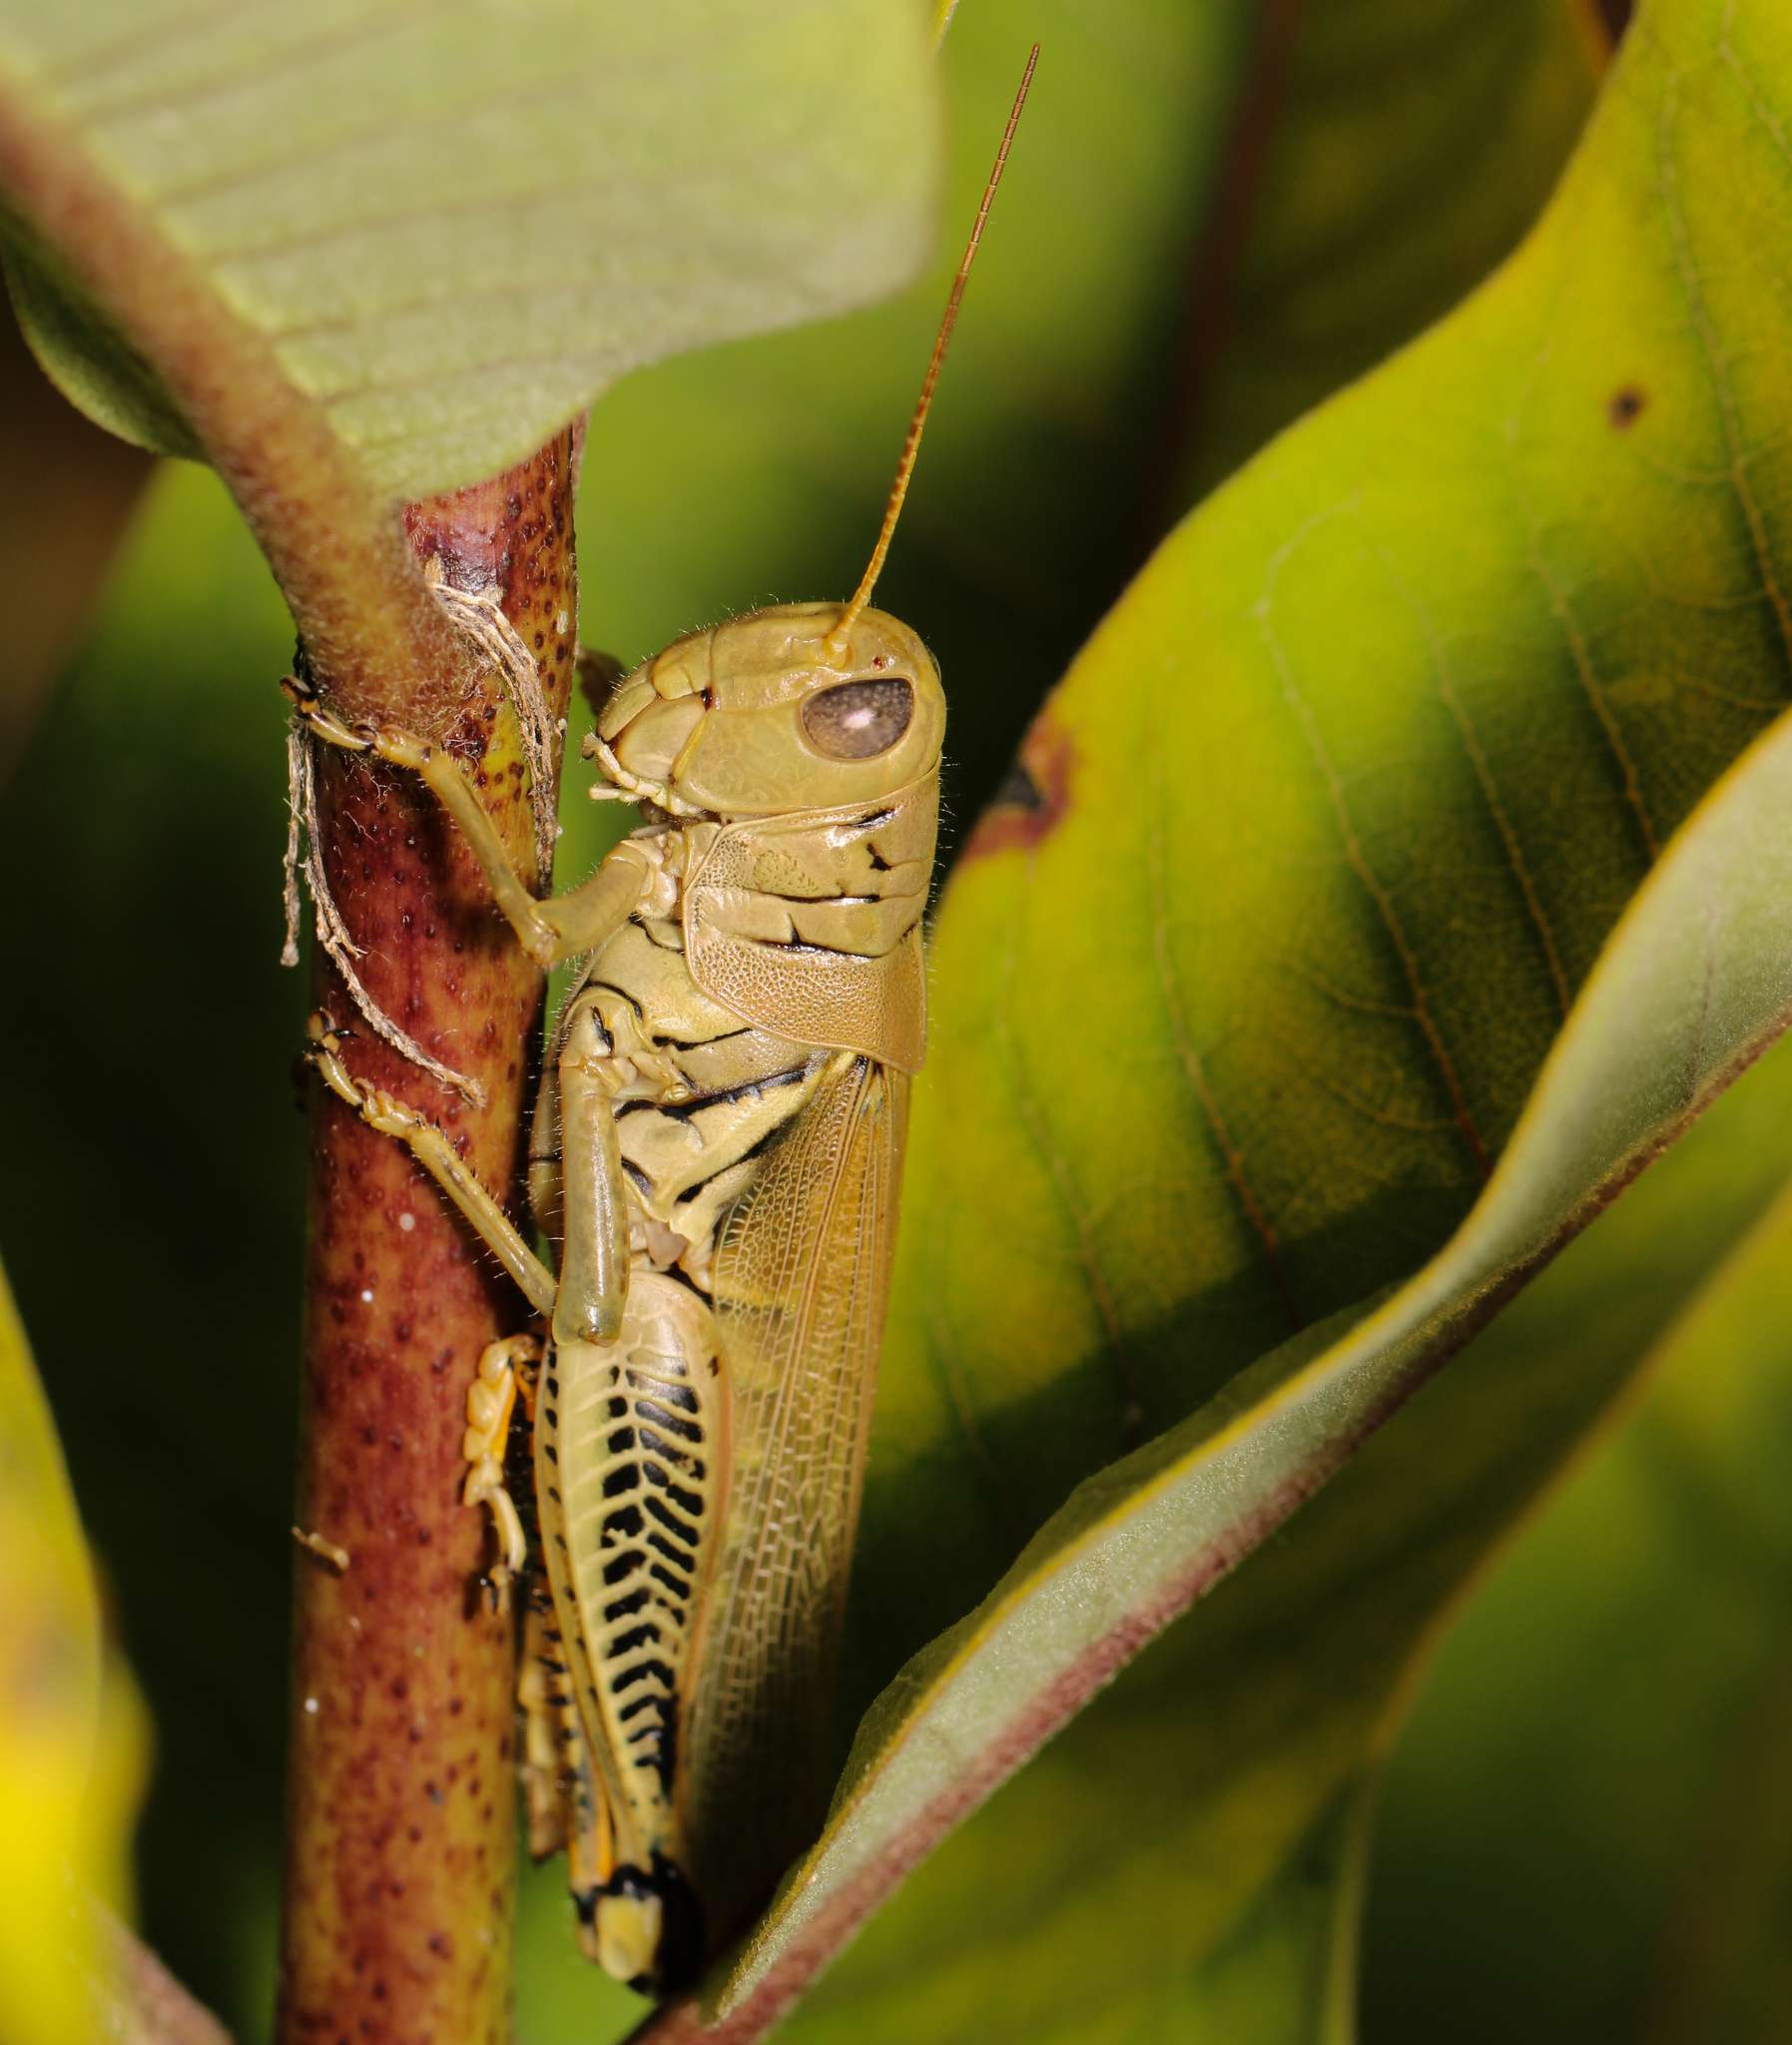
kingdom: Animalia
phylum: Arthropoda
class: Insecta
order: Orthoptera
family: Acrididae
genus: Melanoplus
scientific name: Melanoplus differentialis
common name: Differential grasshopper
